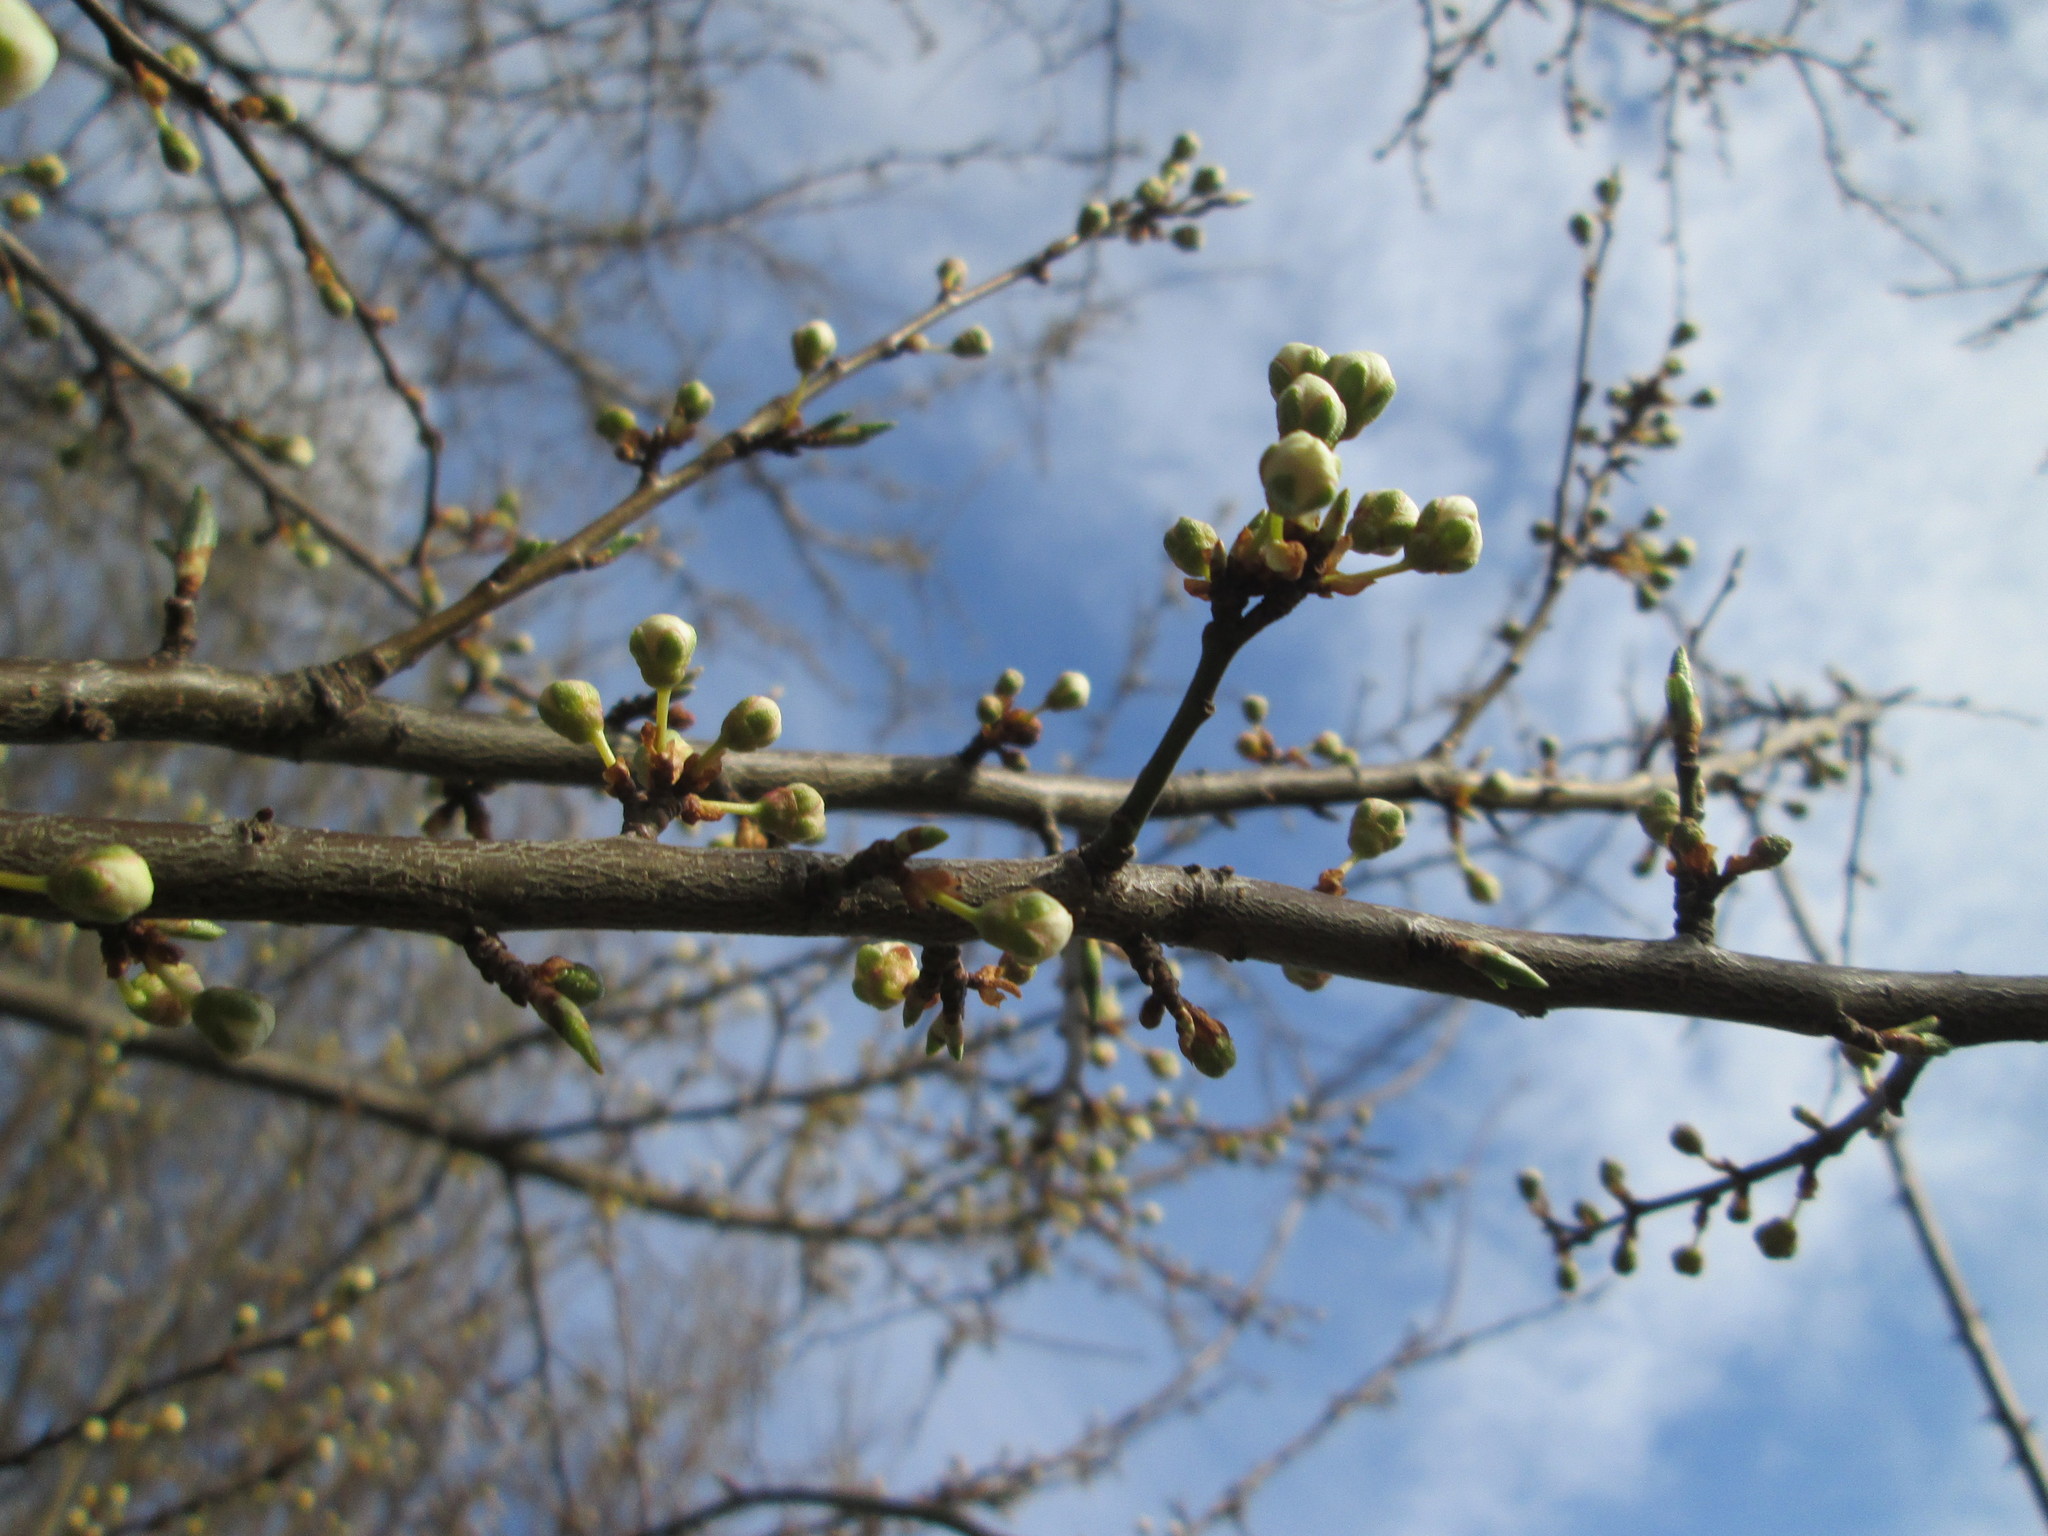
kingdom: Plantae
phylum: Tracheophyta
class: Magnoliopsida
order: Rosales
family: Rosaceae
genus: Prunus
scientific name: Prunus cerasifera
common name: Cherry plum
